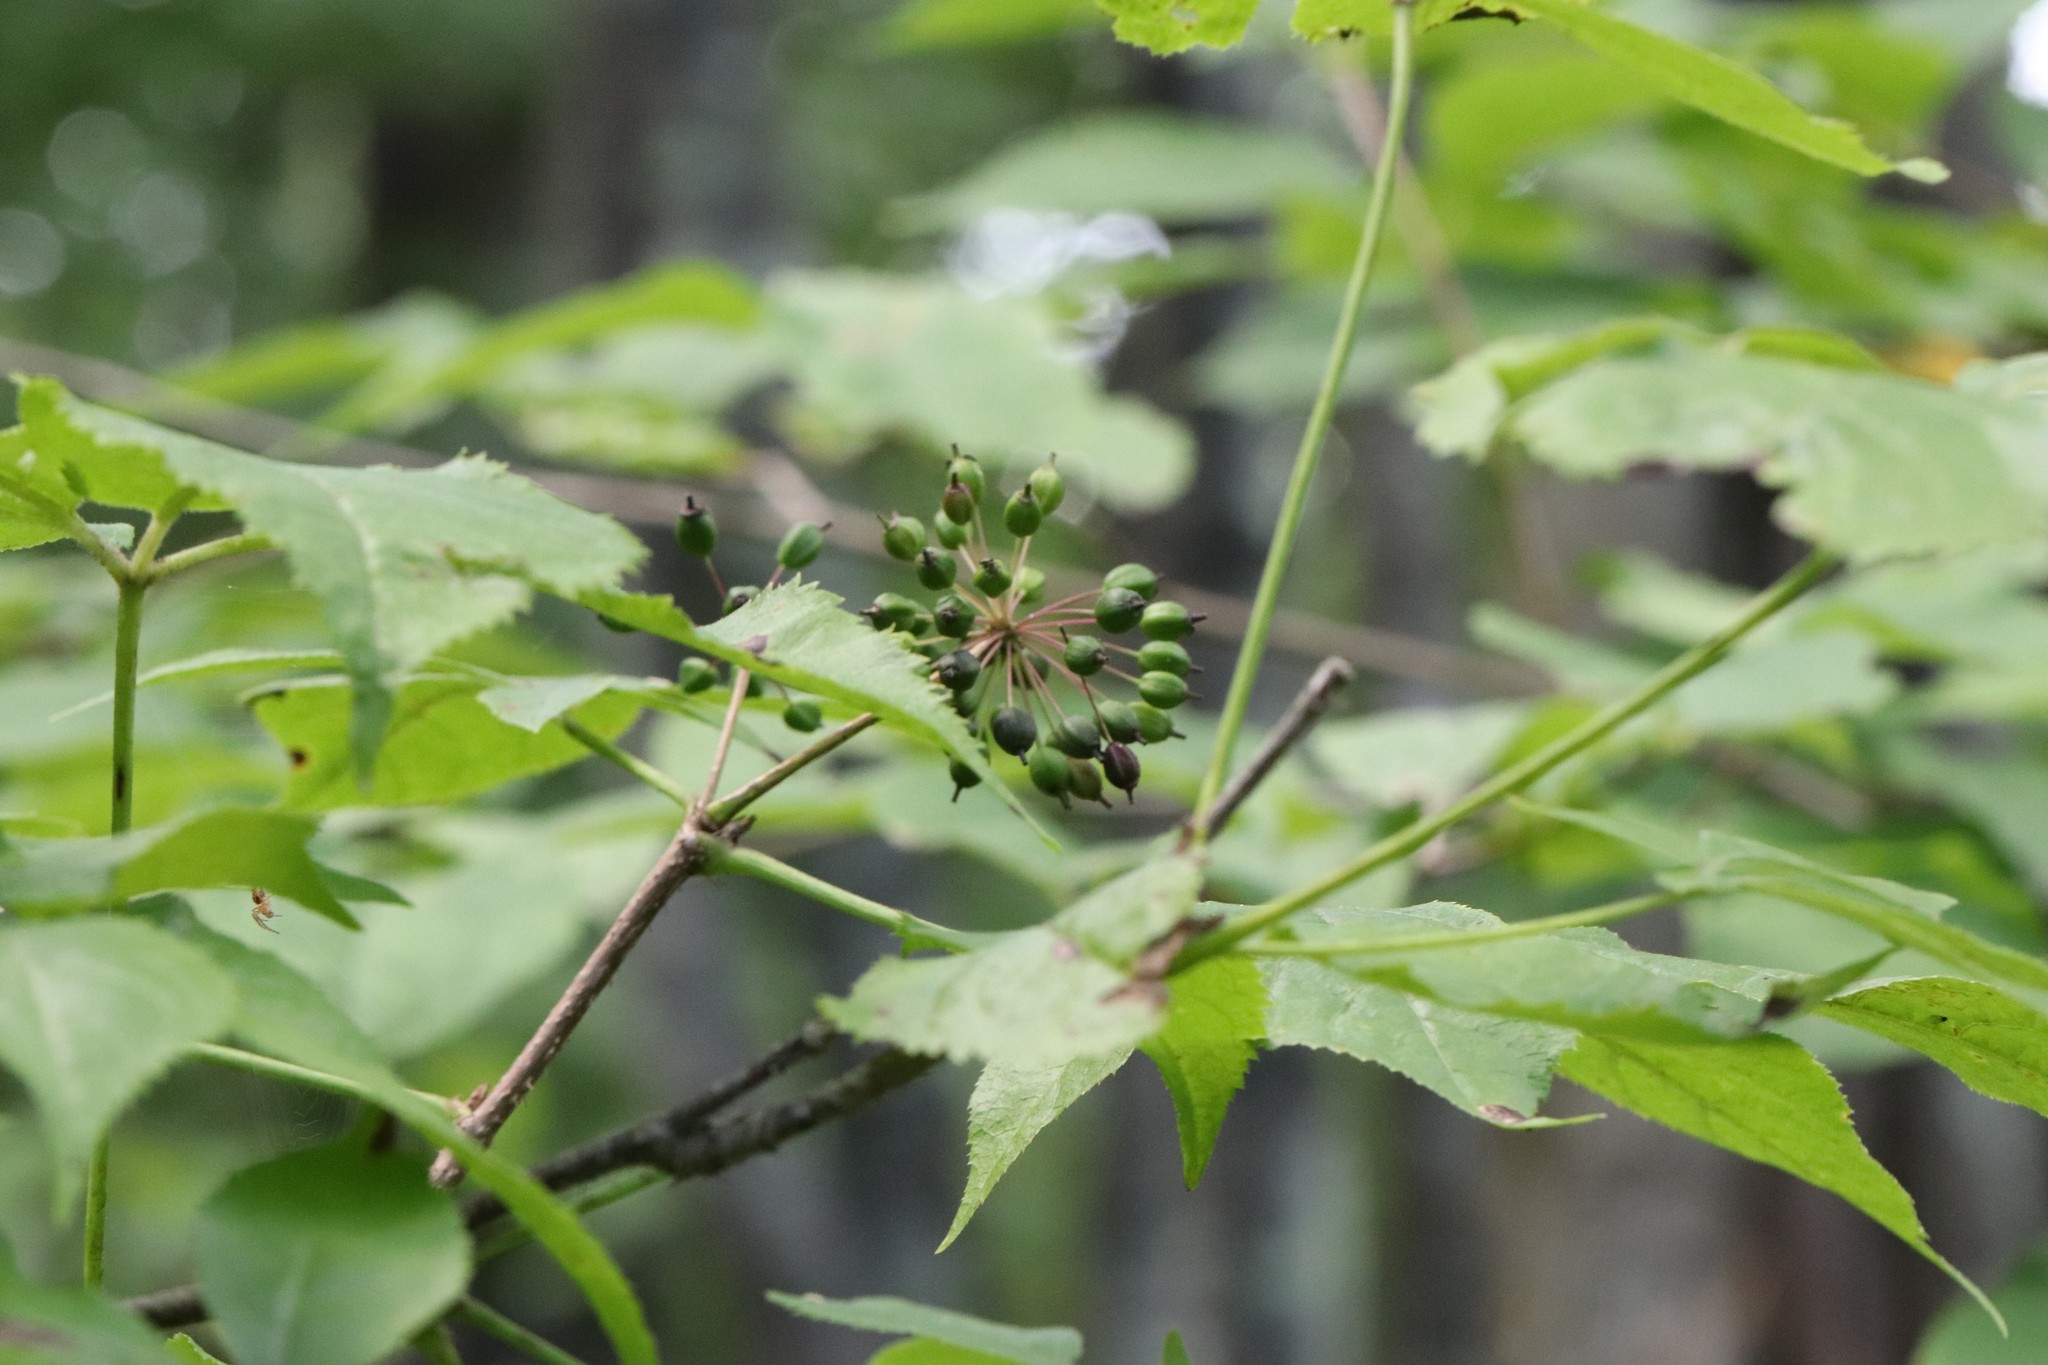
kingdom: Plantae
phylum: Tracheophyta
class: Magnoliopsida
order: Apiales
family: Araliaceae
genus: Eleutherococcus
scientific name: Eleutherococcus senticosus
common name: Siberian-ginseng
